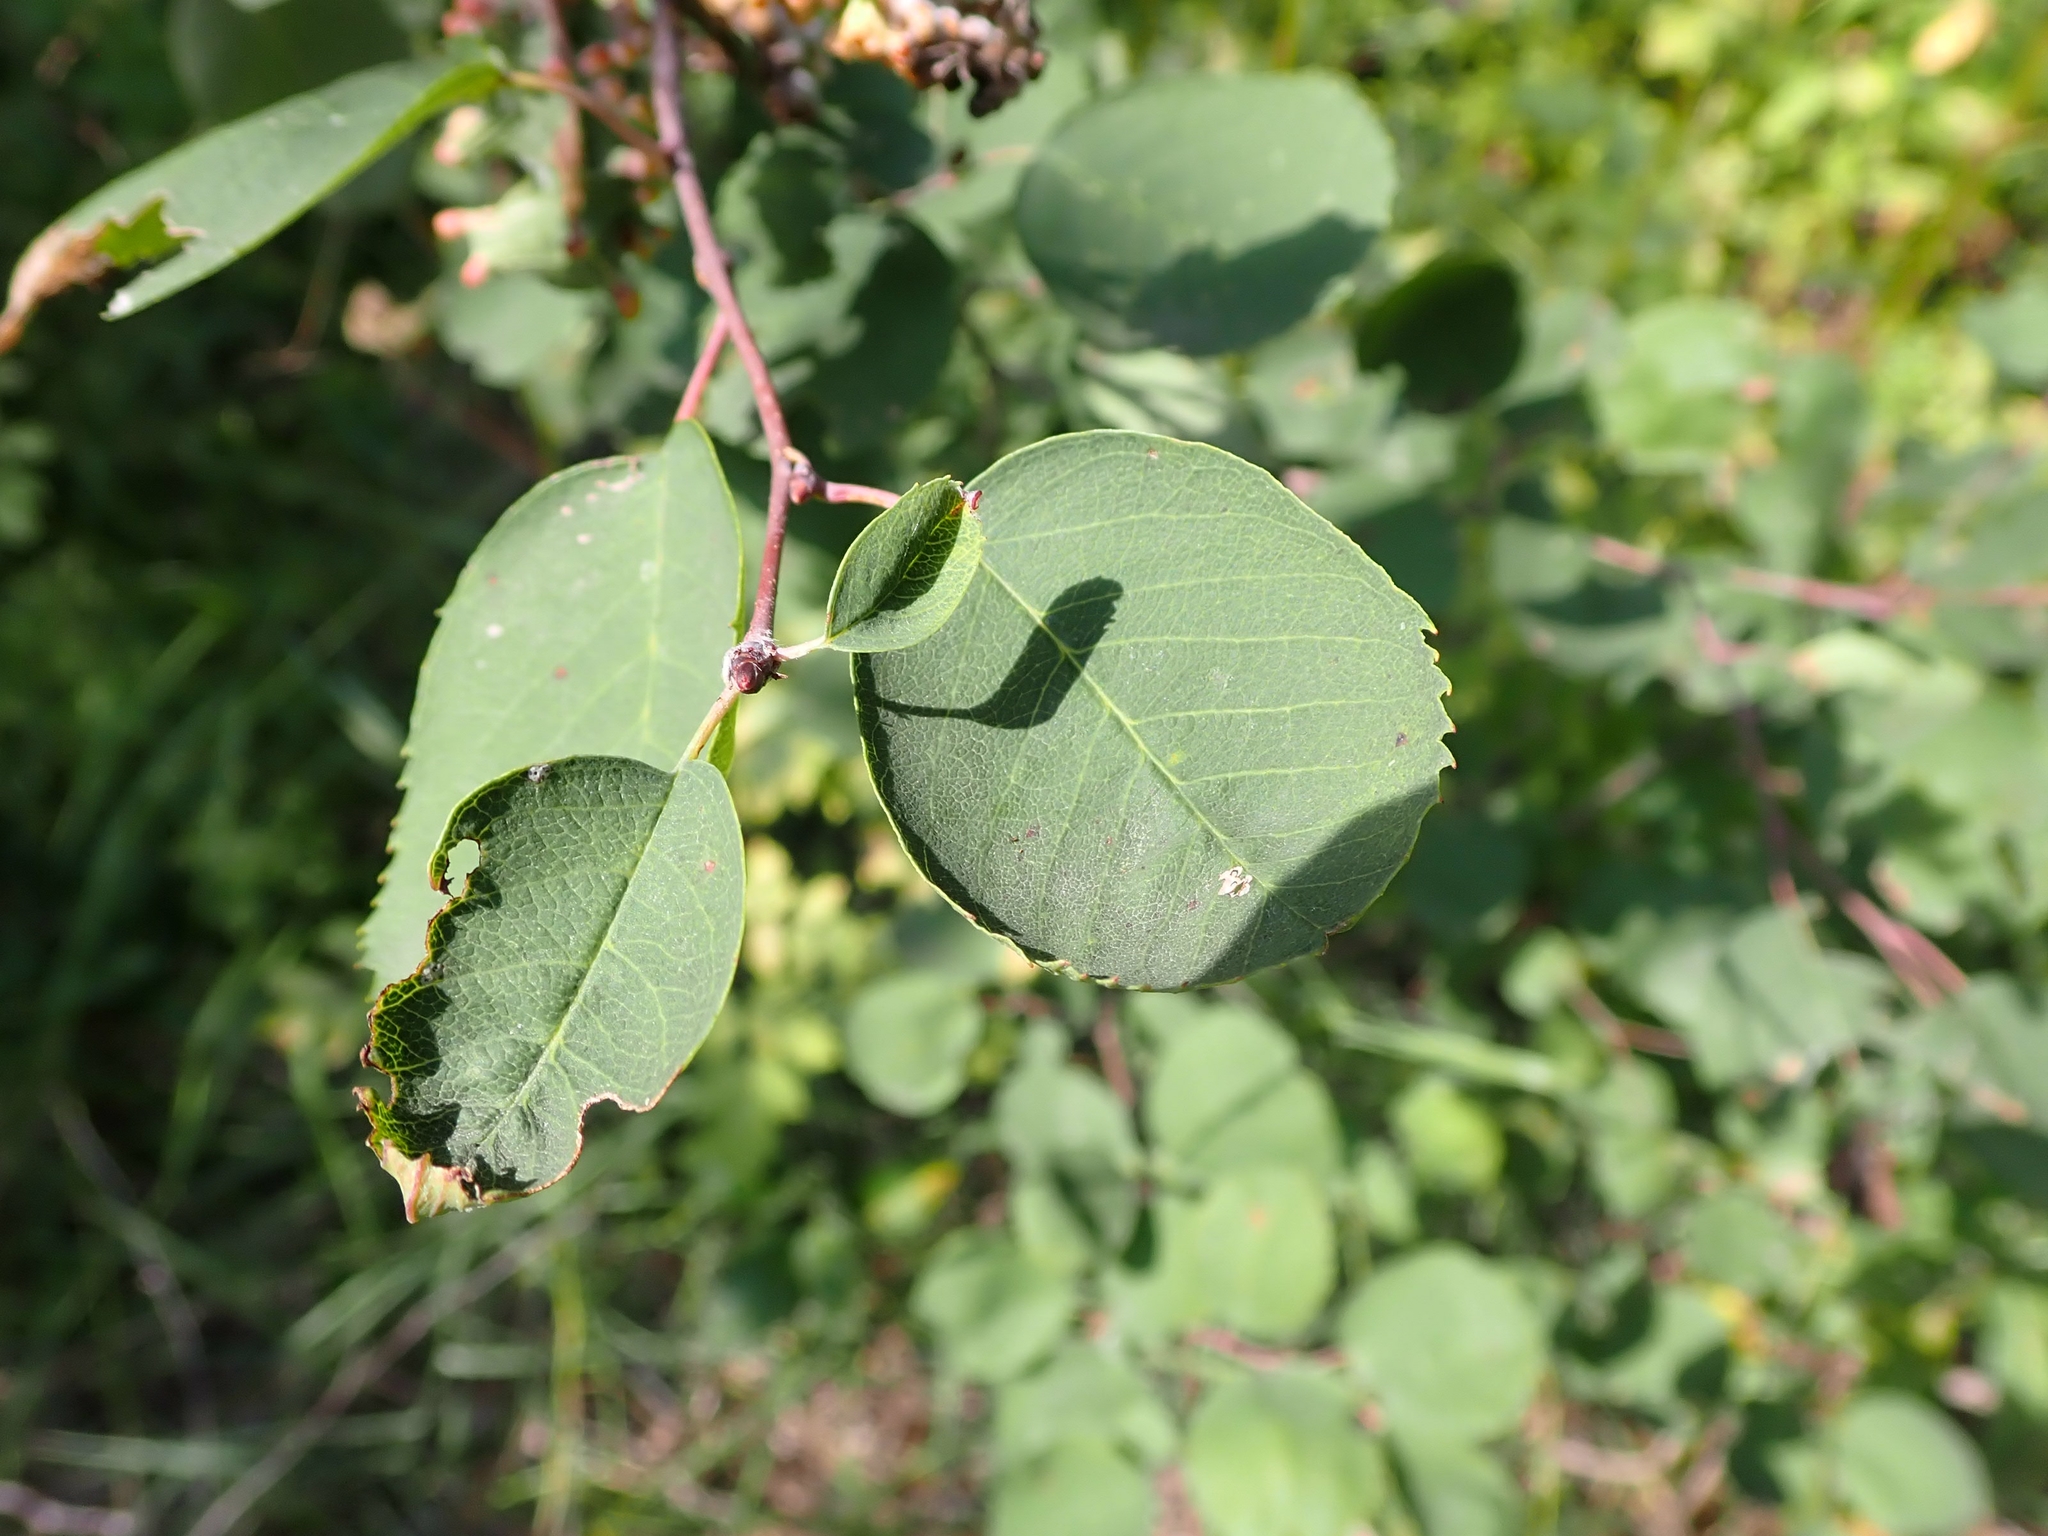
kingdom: Plantae
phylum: Tracheophyta
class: Magnoliopsida
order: Rosales
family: Rosaceae
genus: Amelanchier
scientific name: Amelanchier alnifolia
